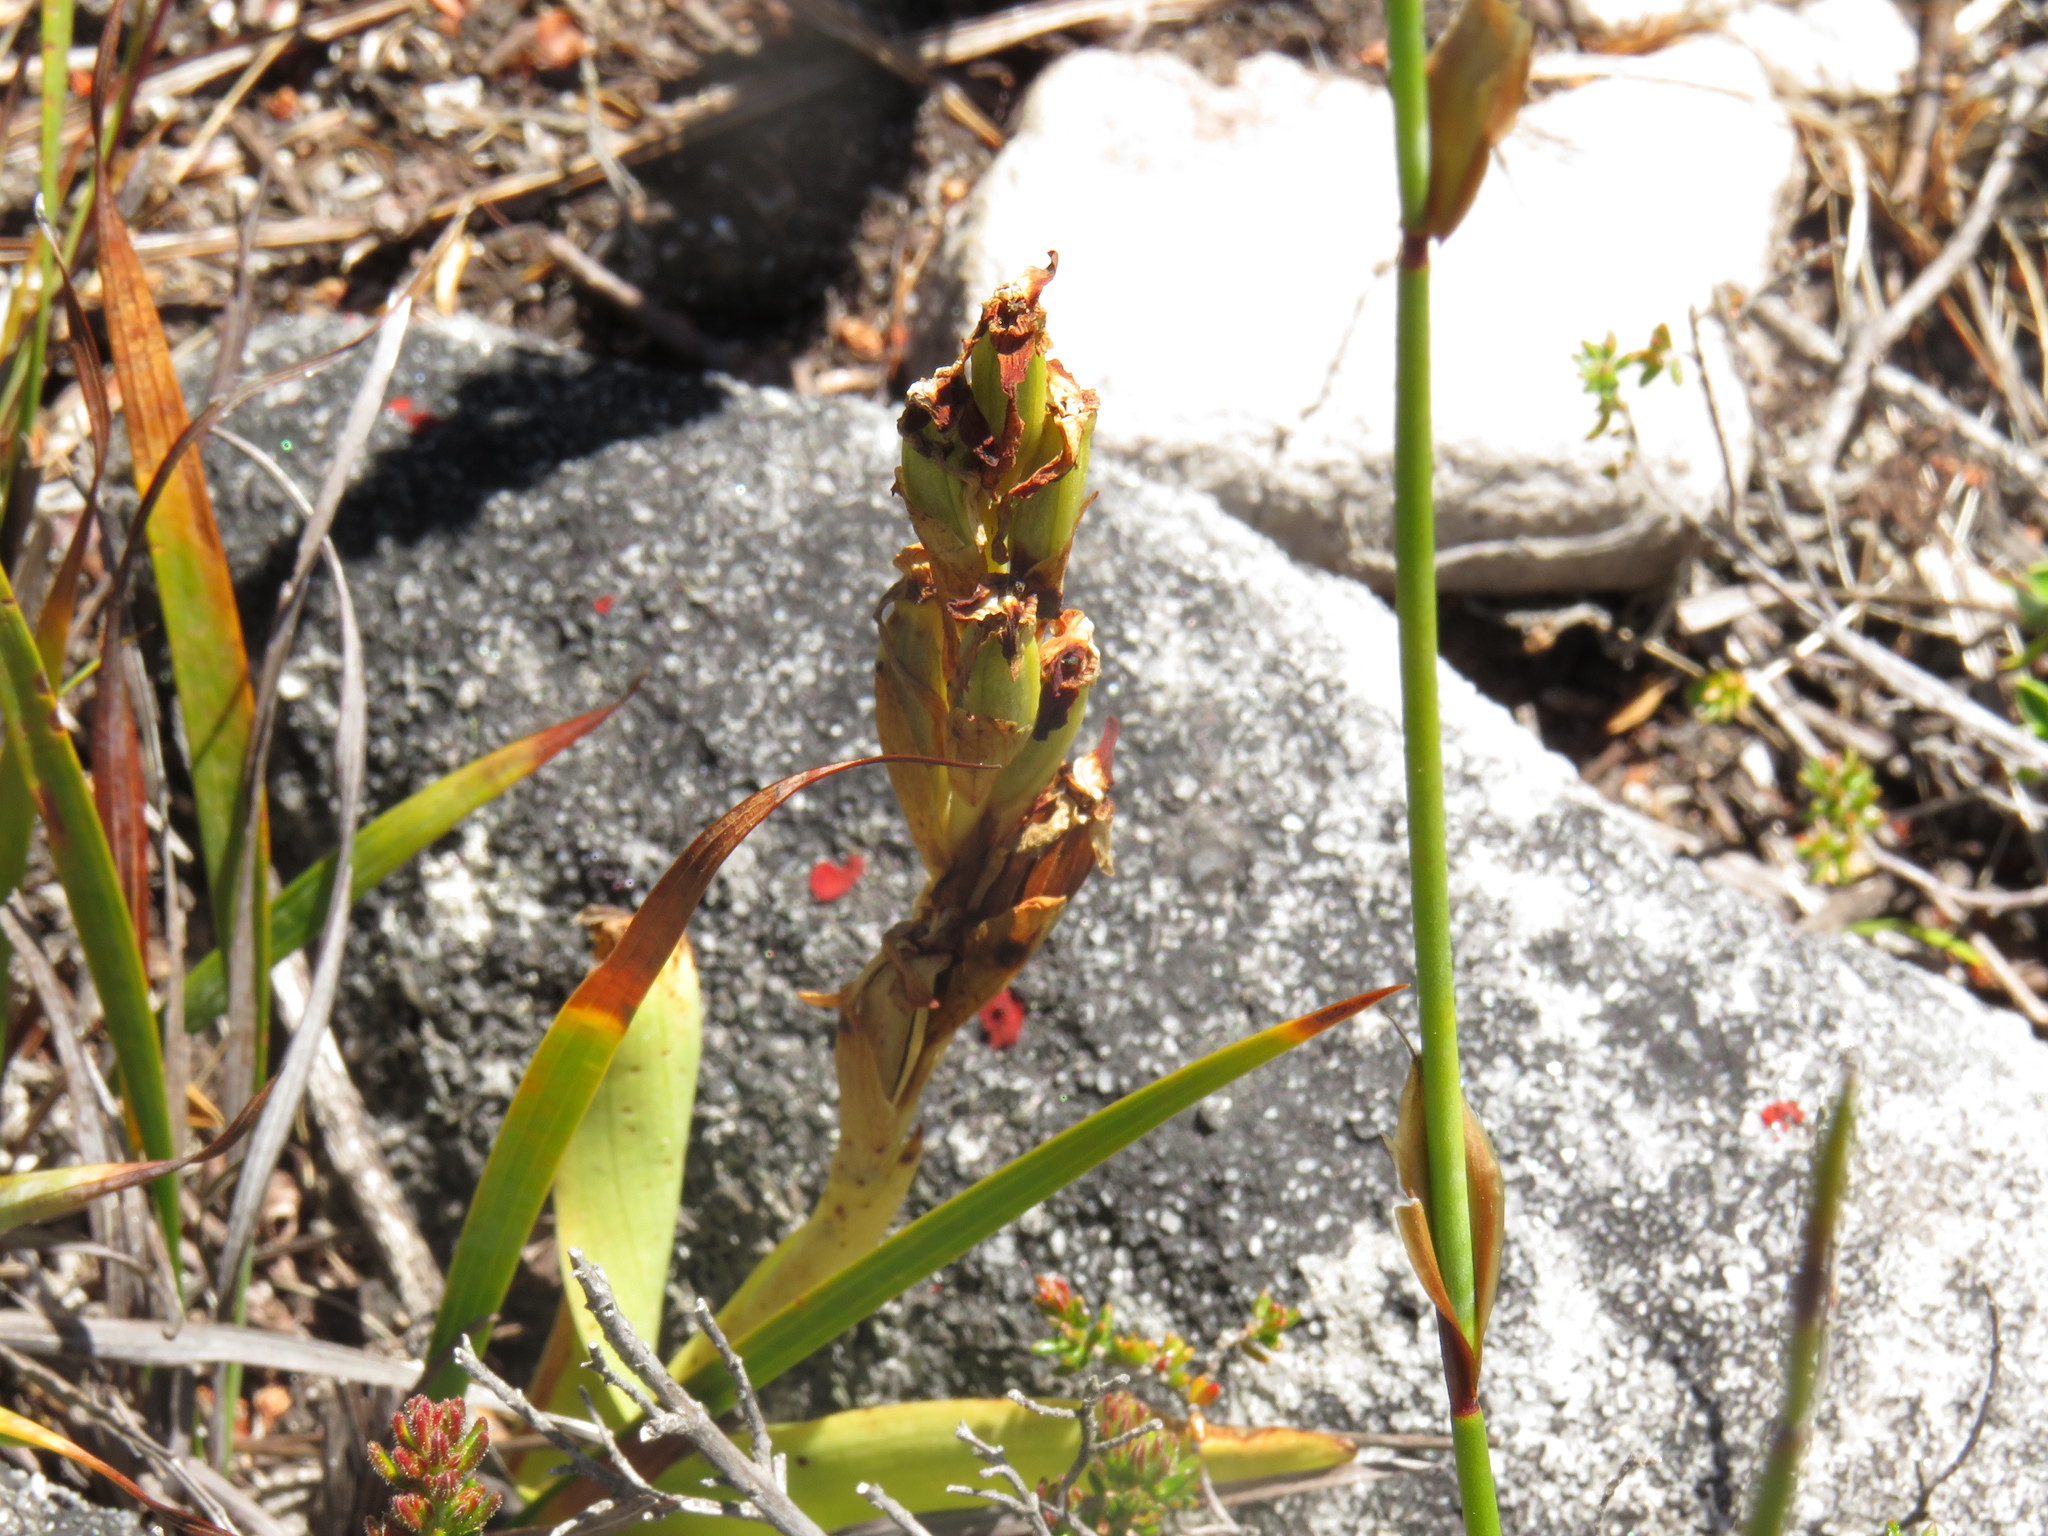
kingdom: Plantae
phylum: Tracheophyta
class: Liliopsida
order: Asparagales
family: Orchidaceae
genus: Disa
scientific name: Disa comosa
